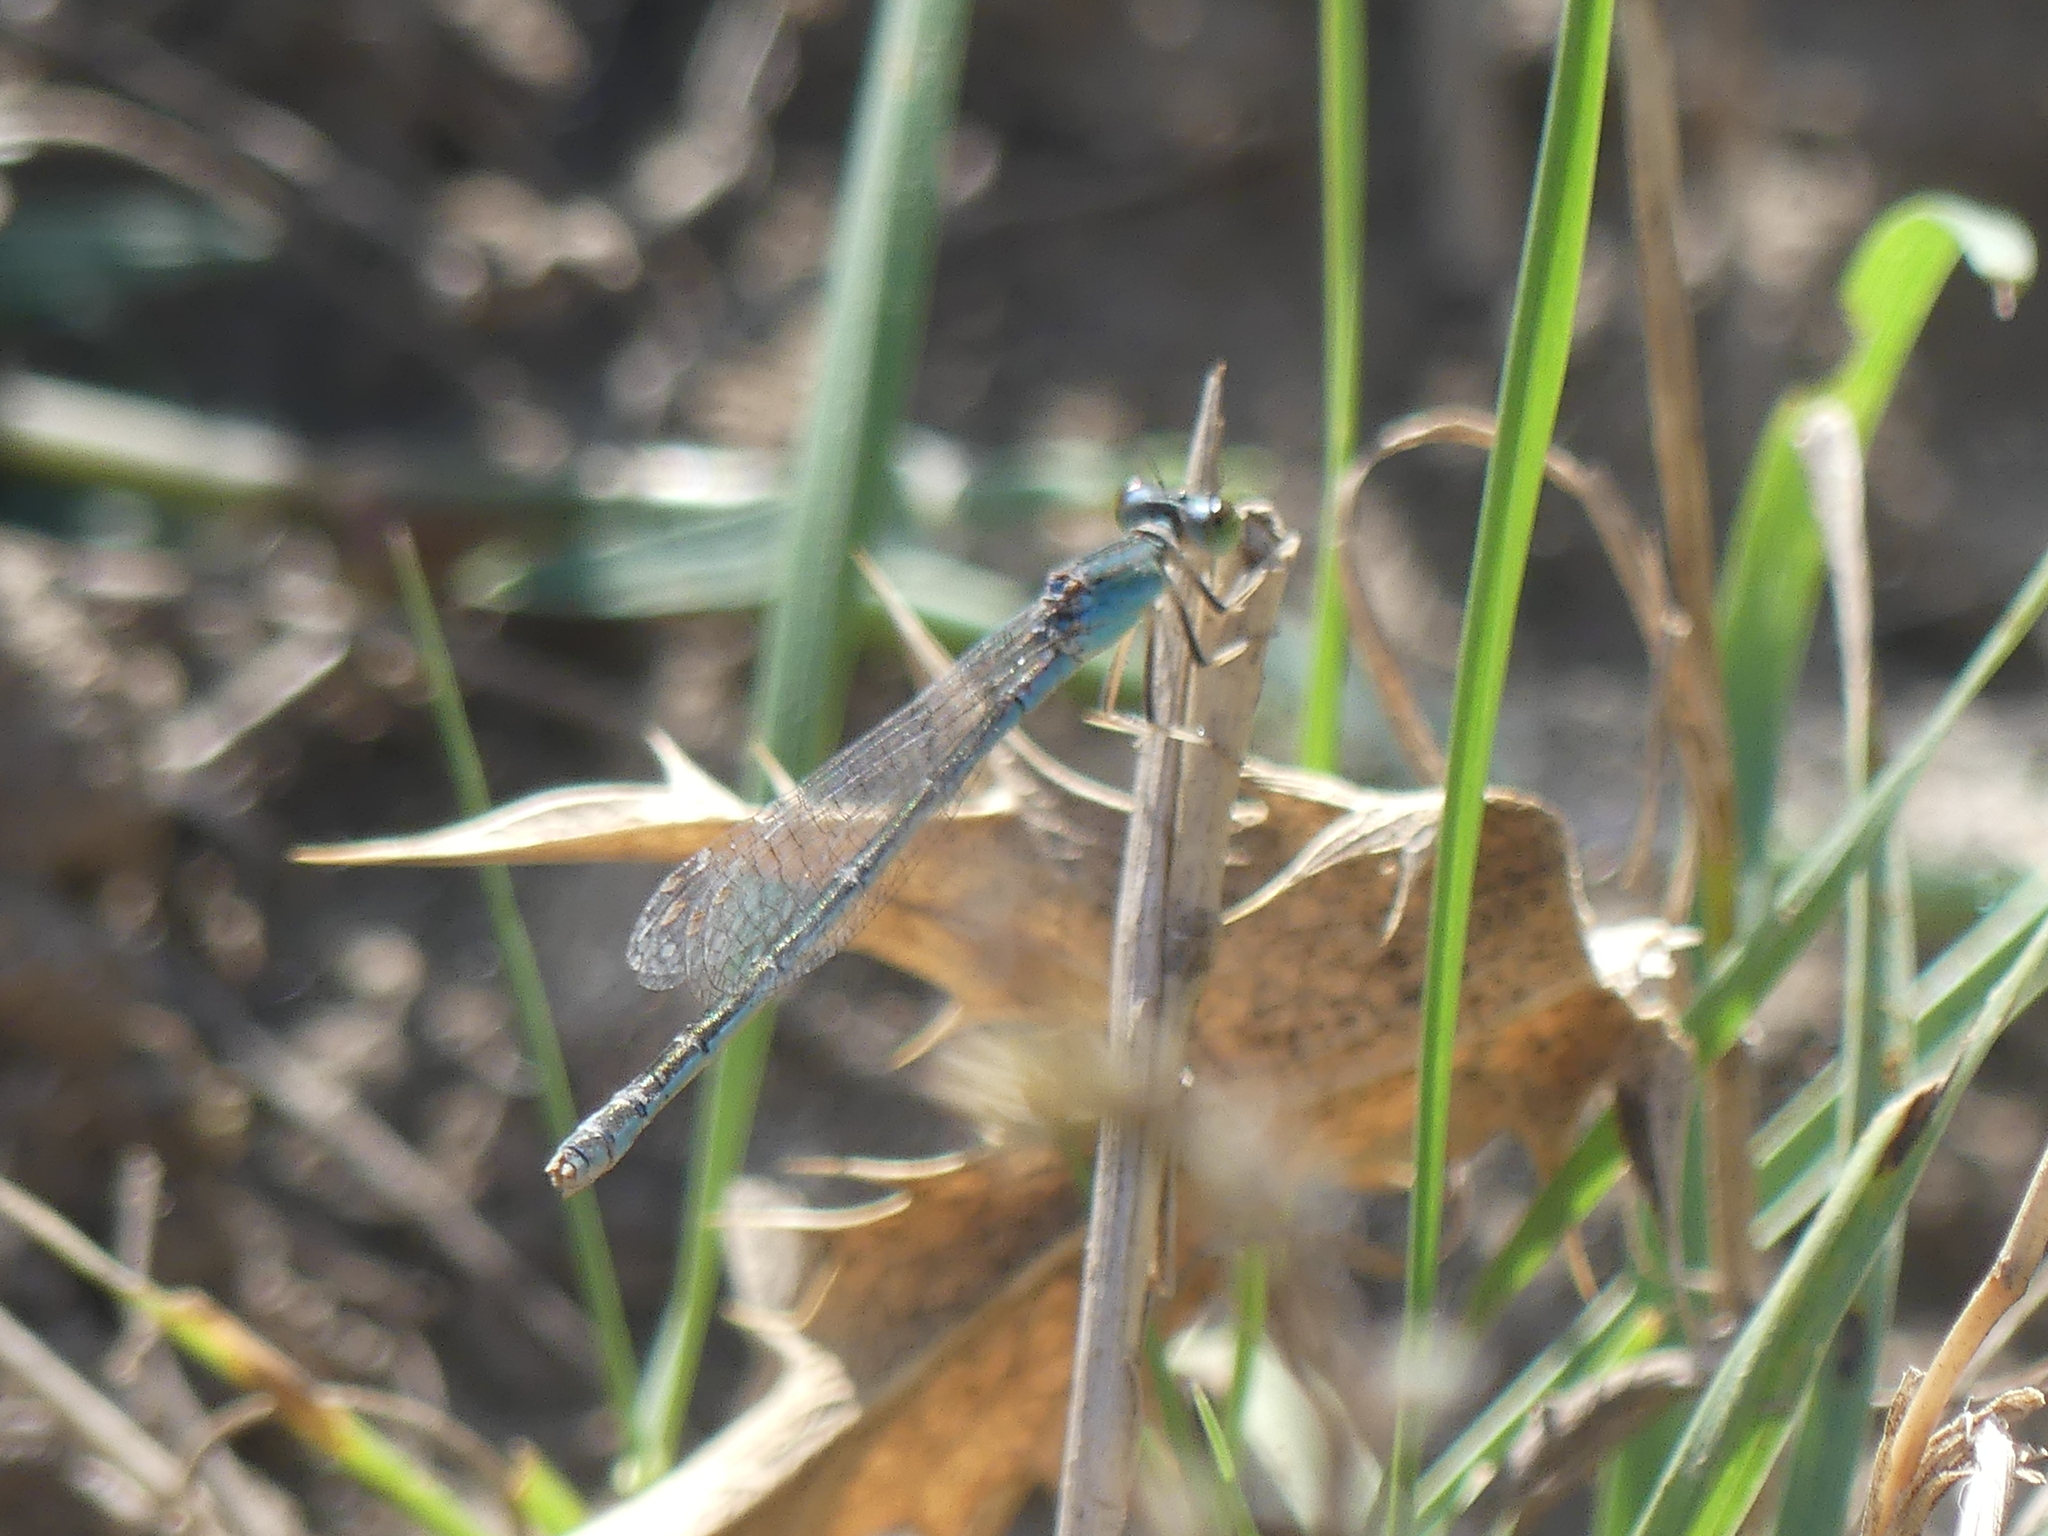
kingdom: Animalia
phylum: Arthropoda
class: Insecta
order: Odonata
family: Coenagrionidae
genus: Ischnura
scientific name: Ischnura pumilio
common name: Scarce blue-tailed damselfly
